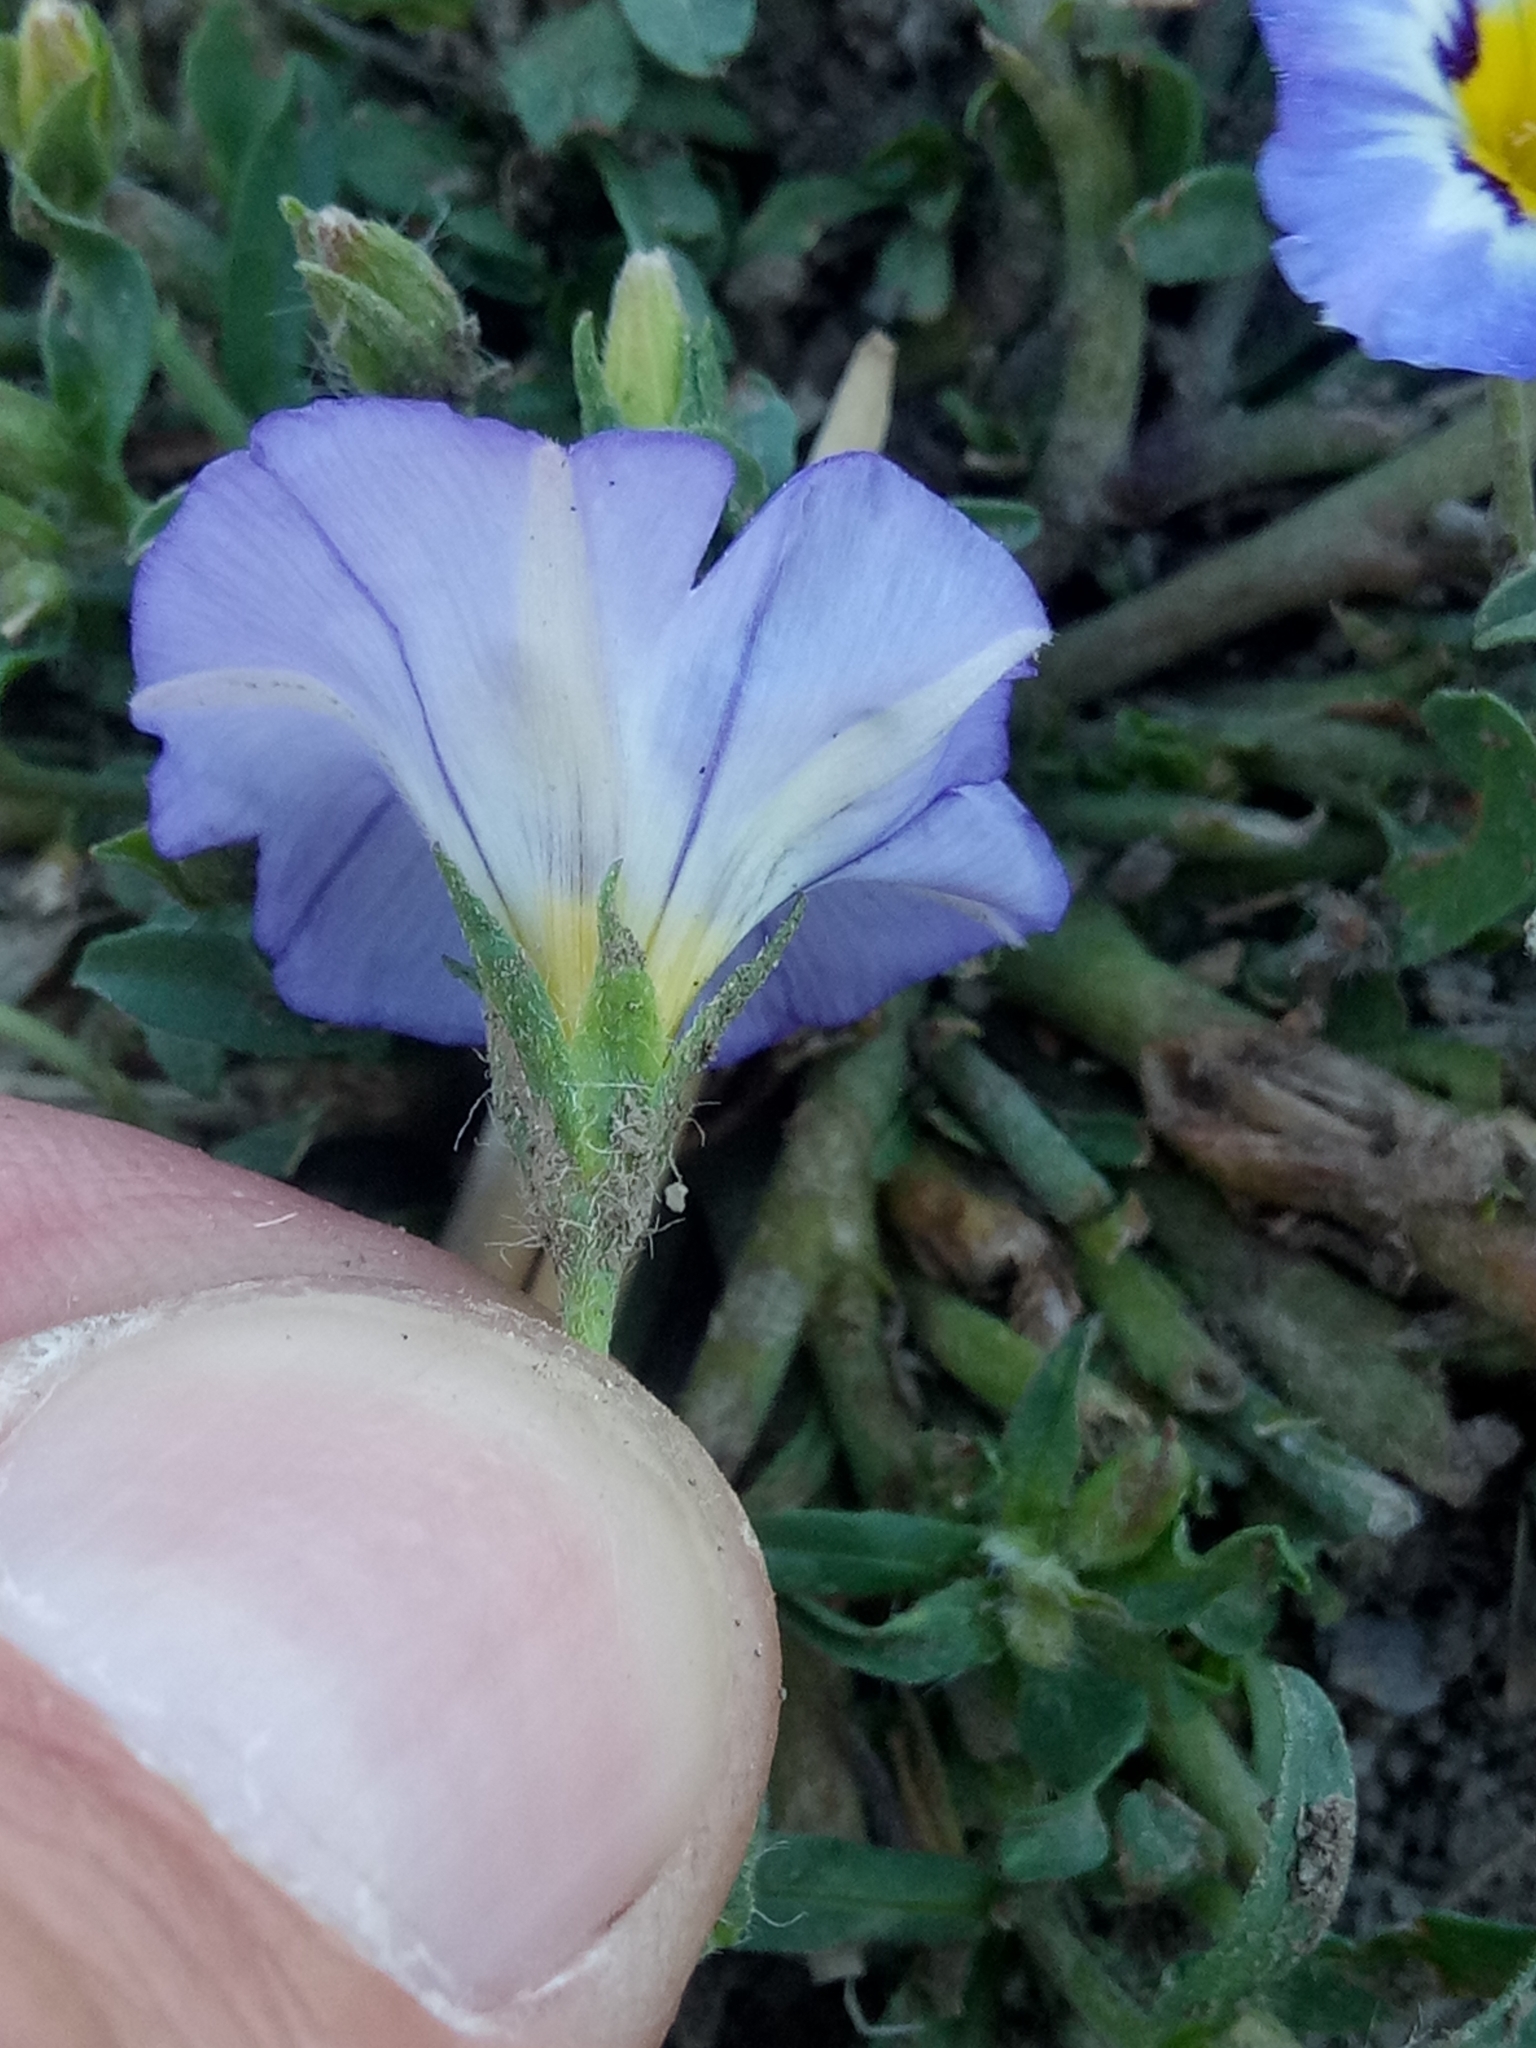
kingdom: Plantae
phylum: Tracheophyta
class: Magnoliopsida
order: Solanales
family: Convolvulaceae
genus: Convolvulus
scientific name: Convolvulus tricolor
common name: Dwarf morning-glory
